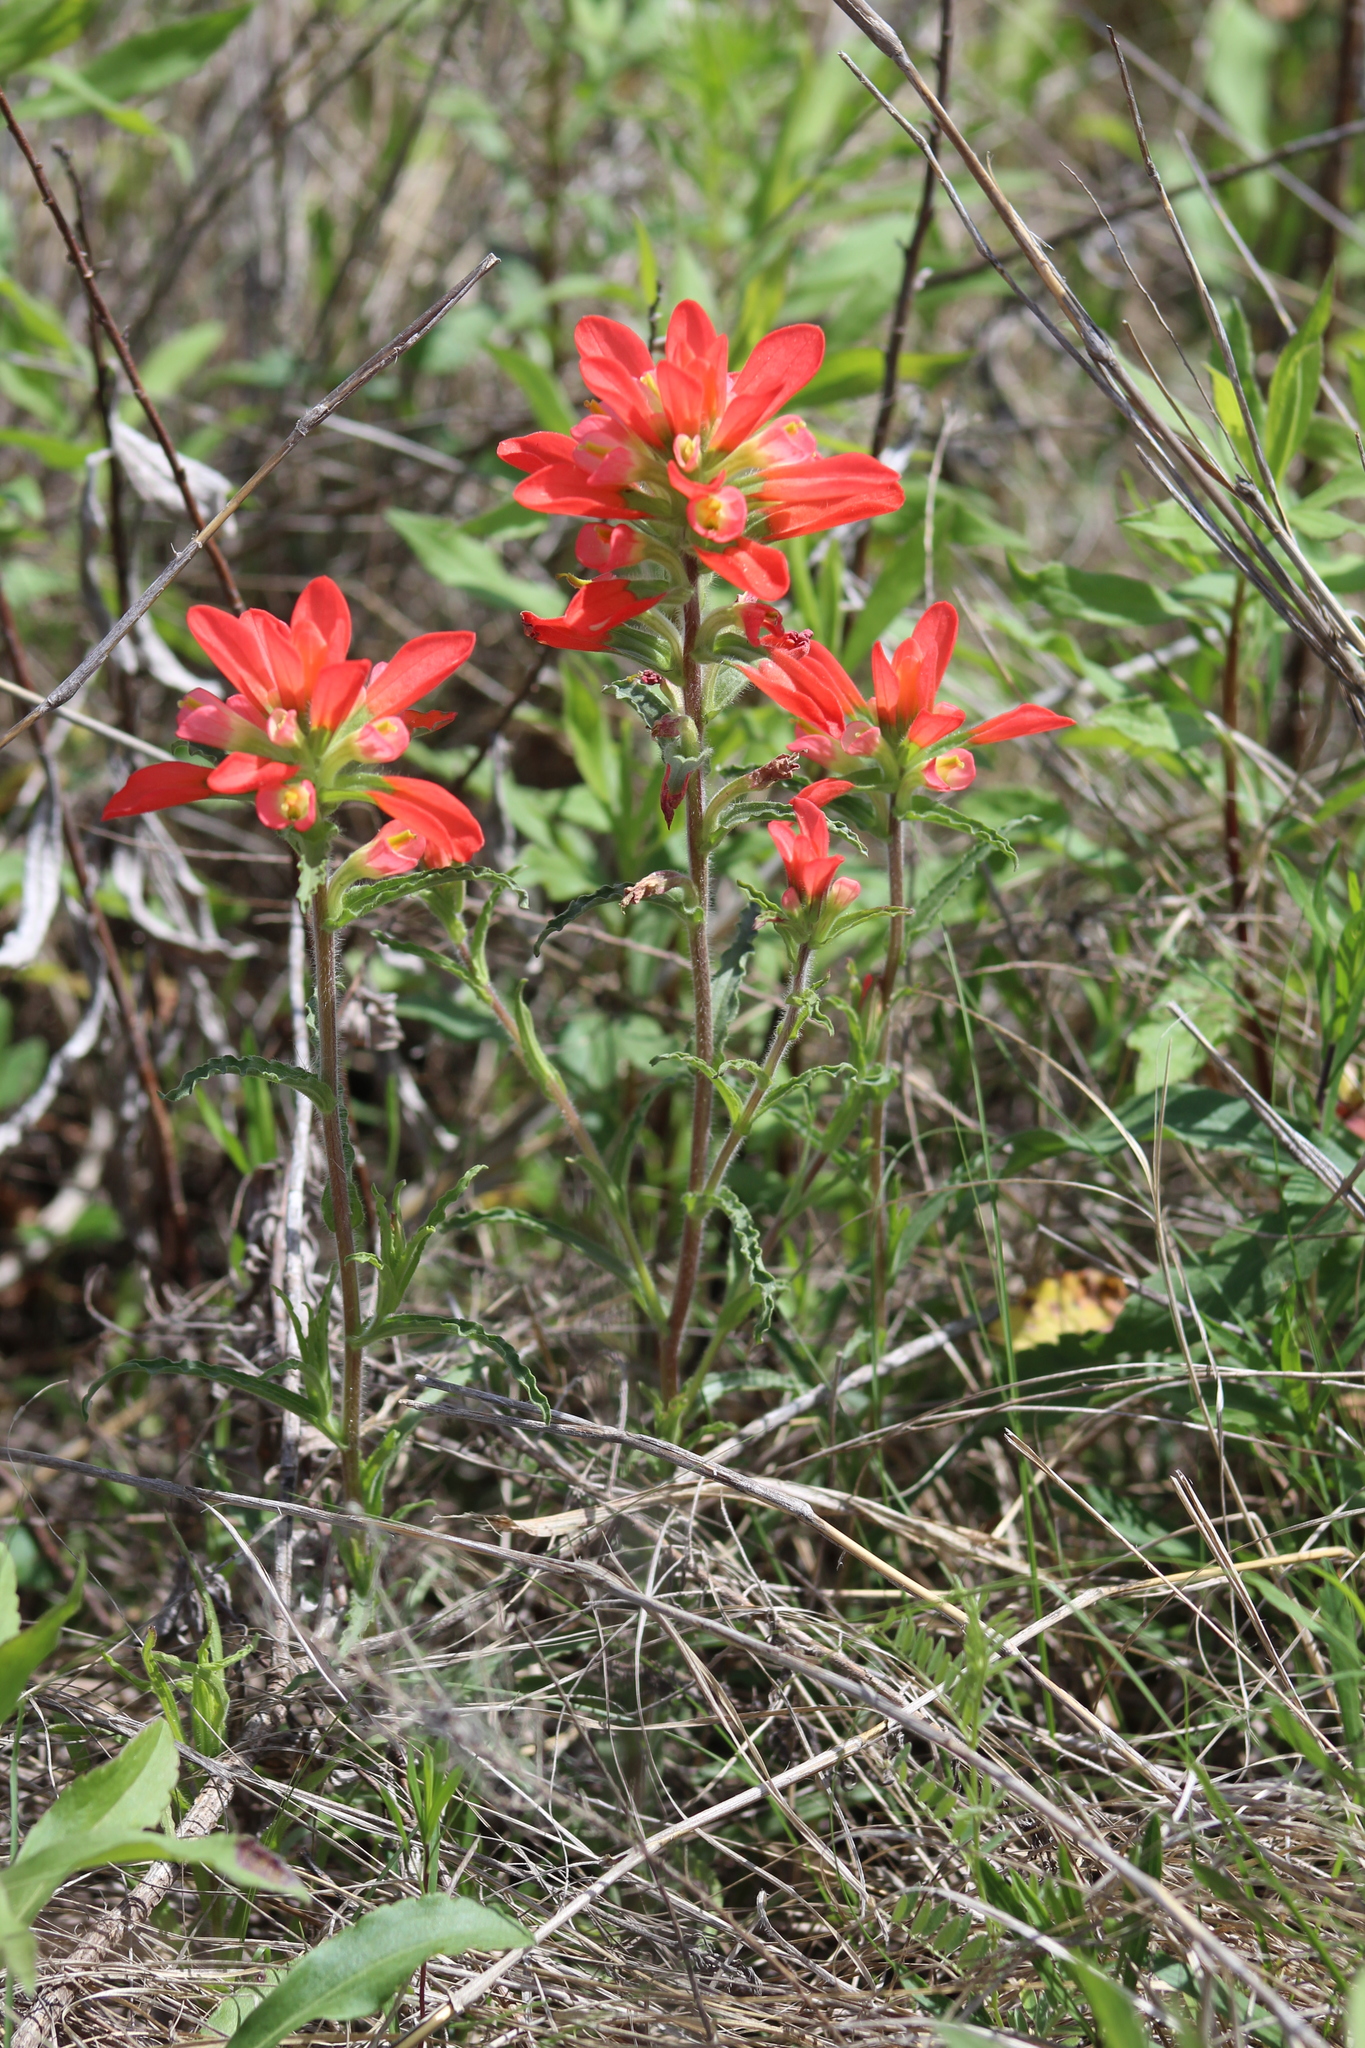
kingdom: Plantae
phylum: Tracheophyta
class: Magnoliopsida
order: Lamiales
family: Orobanchaceae
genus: Castilleja
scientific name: Castilleja indivisa
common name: Texas paintbrush
